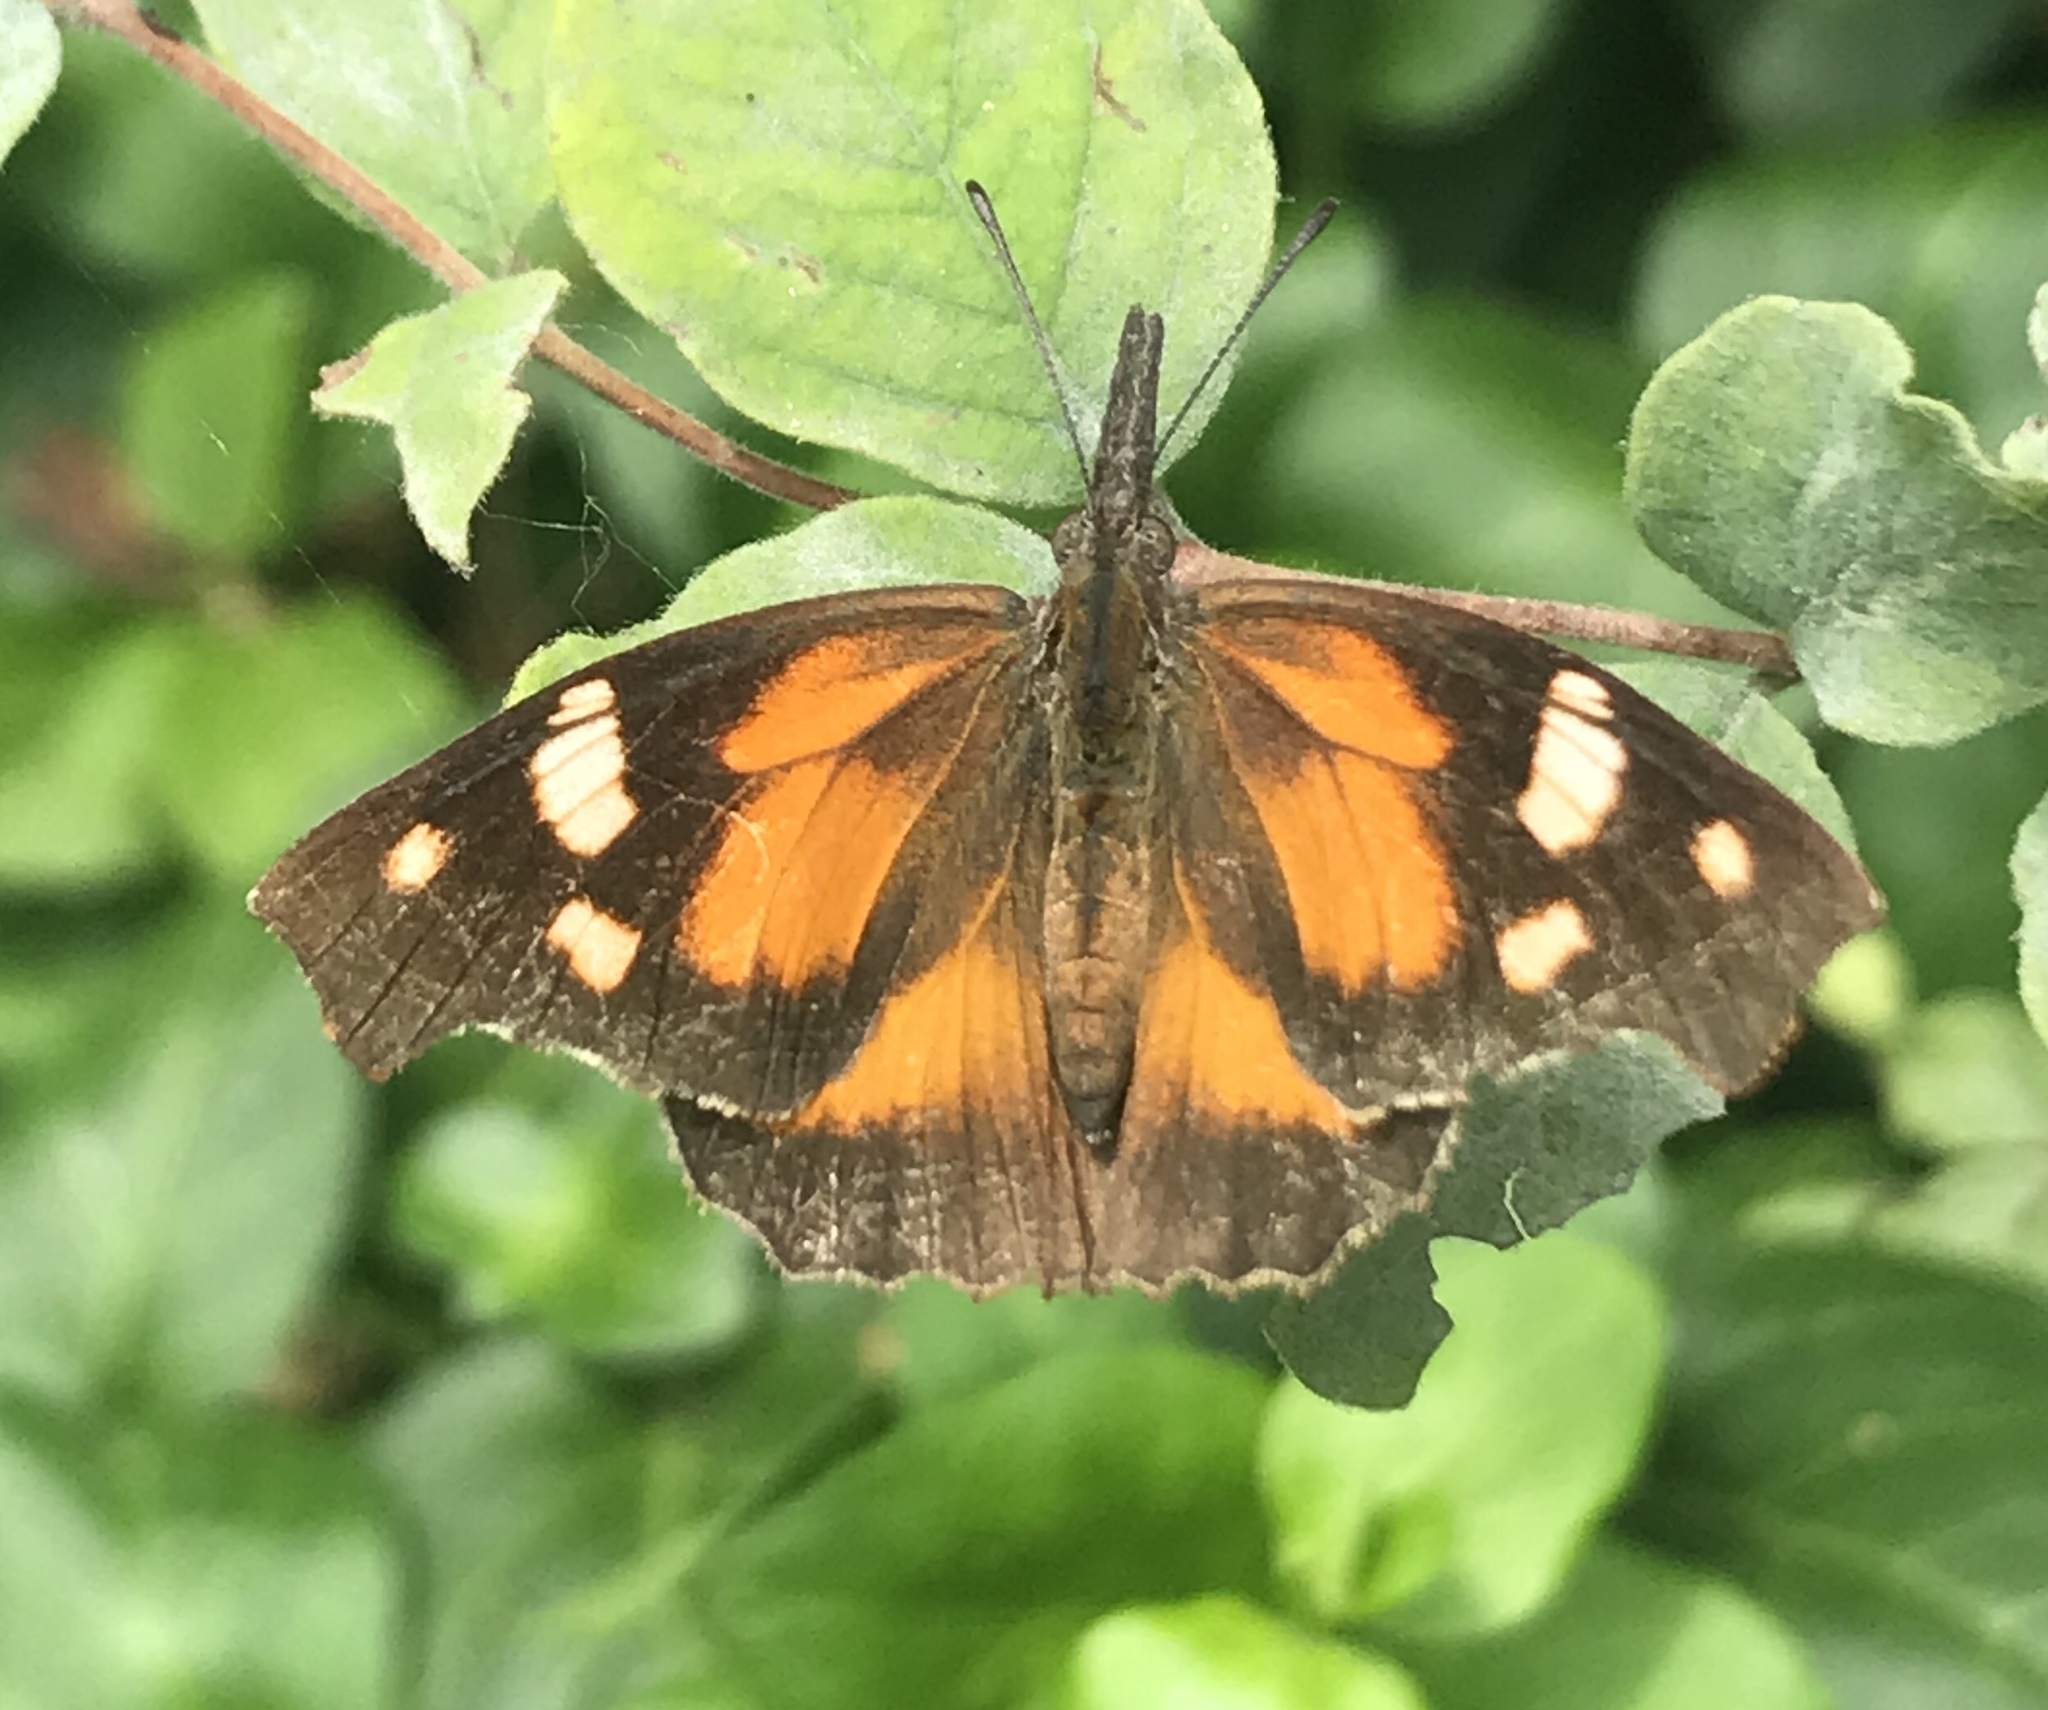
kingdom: Animalia
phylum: Arthropoda
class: Insecta
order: Lepidoptera
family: Nymphalidae
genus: Libytheana
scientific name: Libytheana carinenta
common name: American snout
